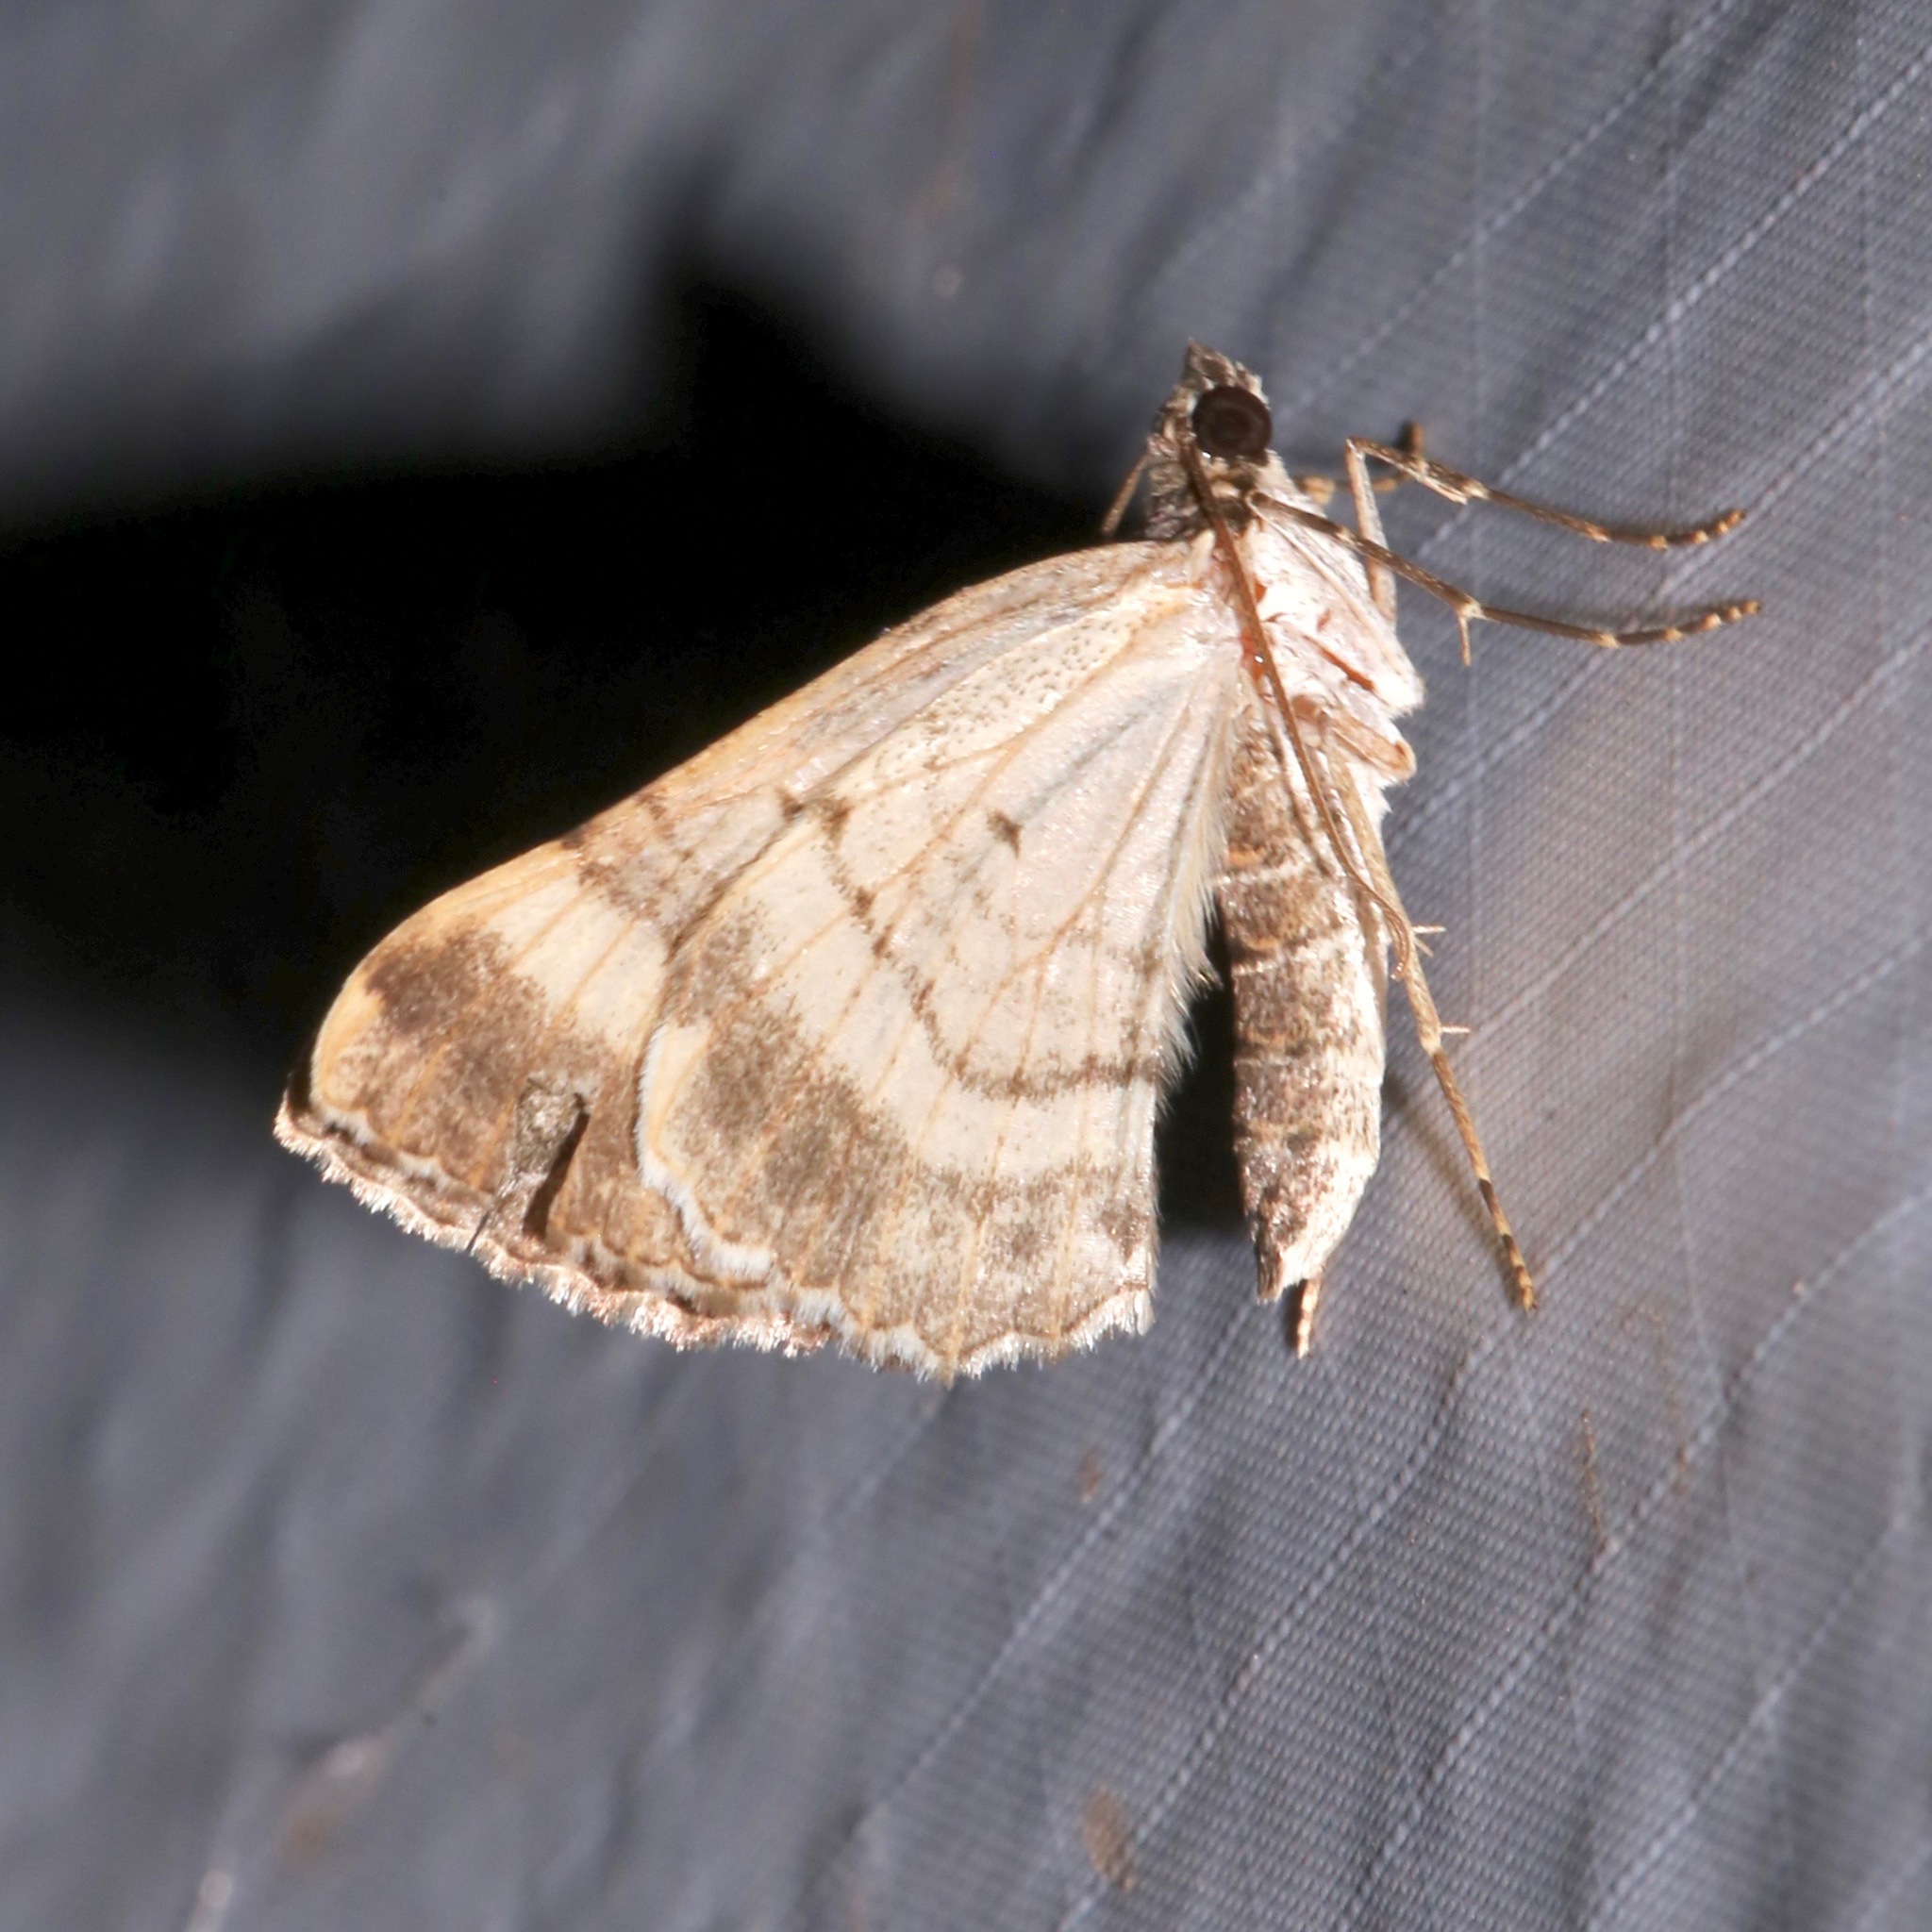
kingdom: Animalia
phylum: Arthropoda
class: Insecta
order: Lepidoptera
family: Geometridae
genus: Archirhoe
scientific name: Archirhoe neomexicana
